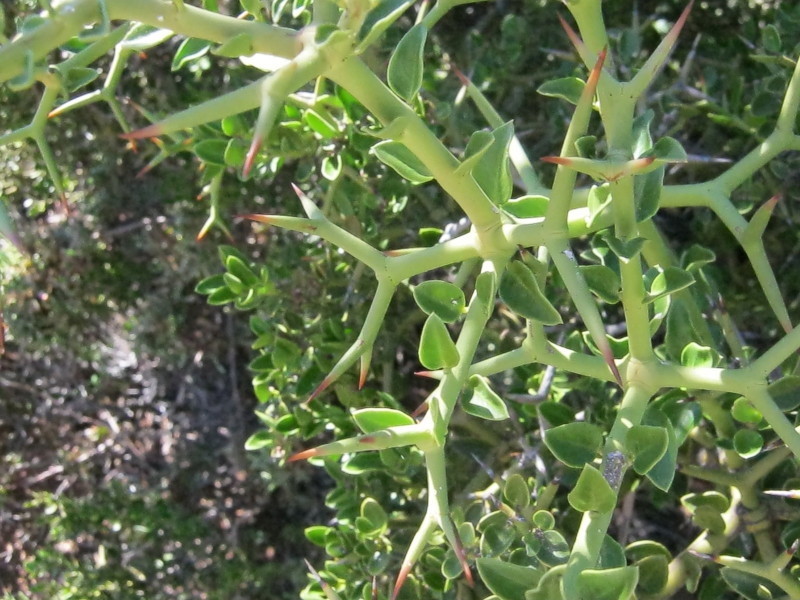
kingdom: Plantae
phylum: Tracheophyta
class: Magnoliopsida
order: Gentianales
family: Apocynaceae
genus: Carissa
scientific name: Carissa haematocarpa
